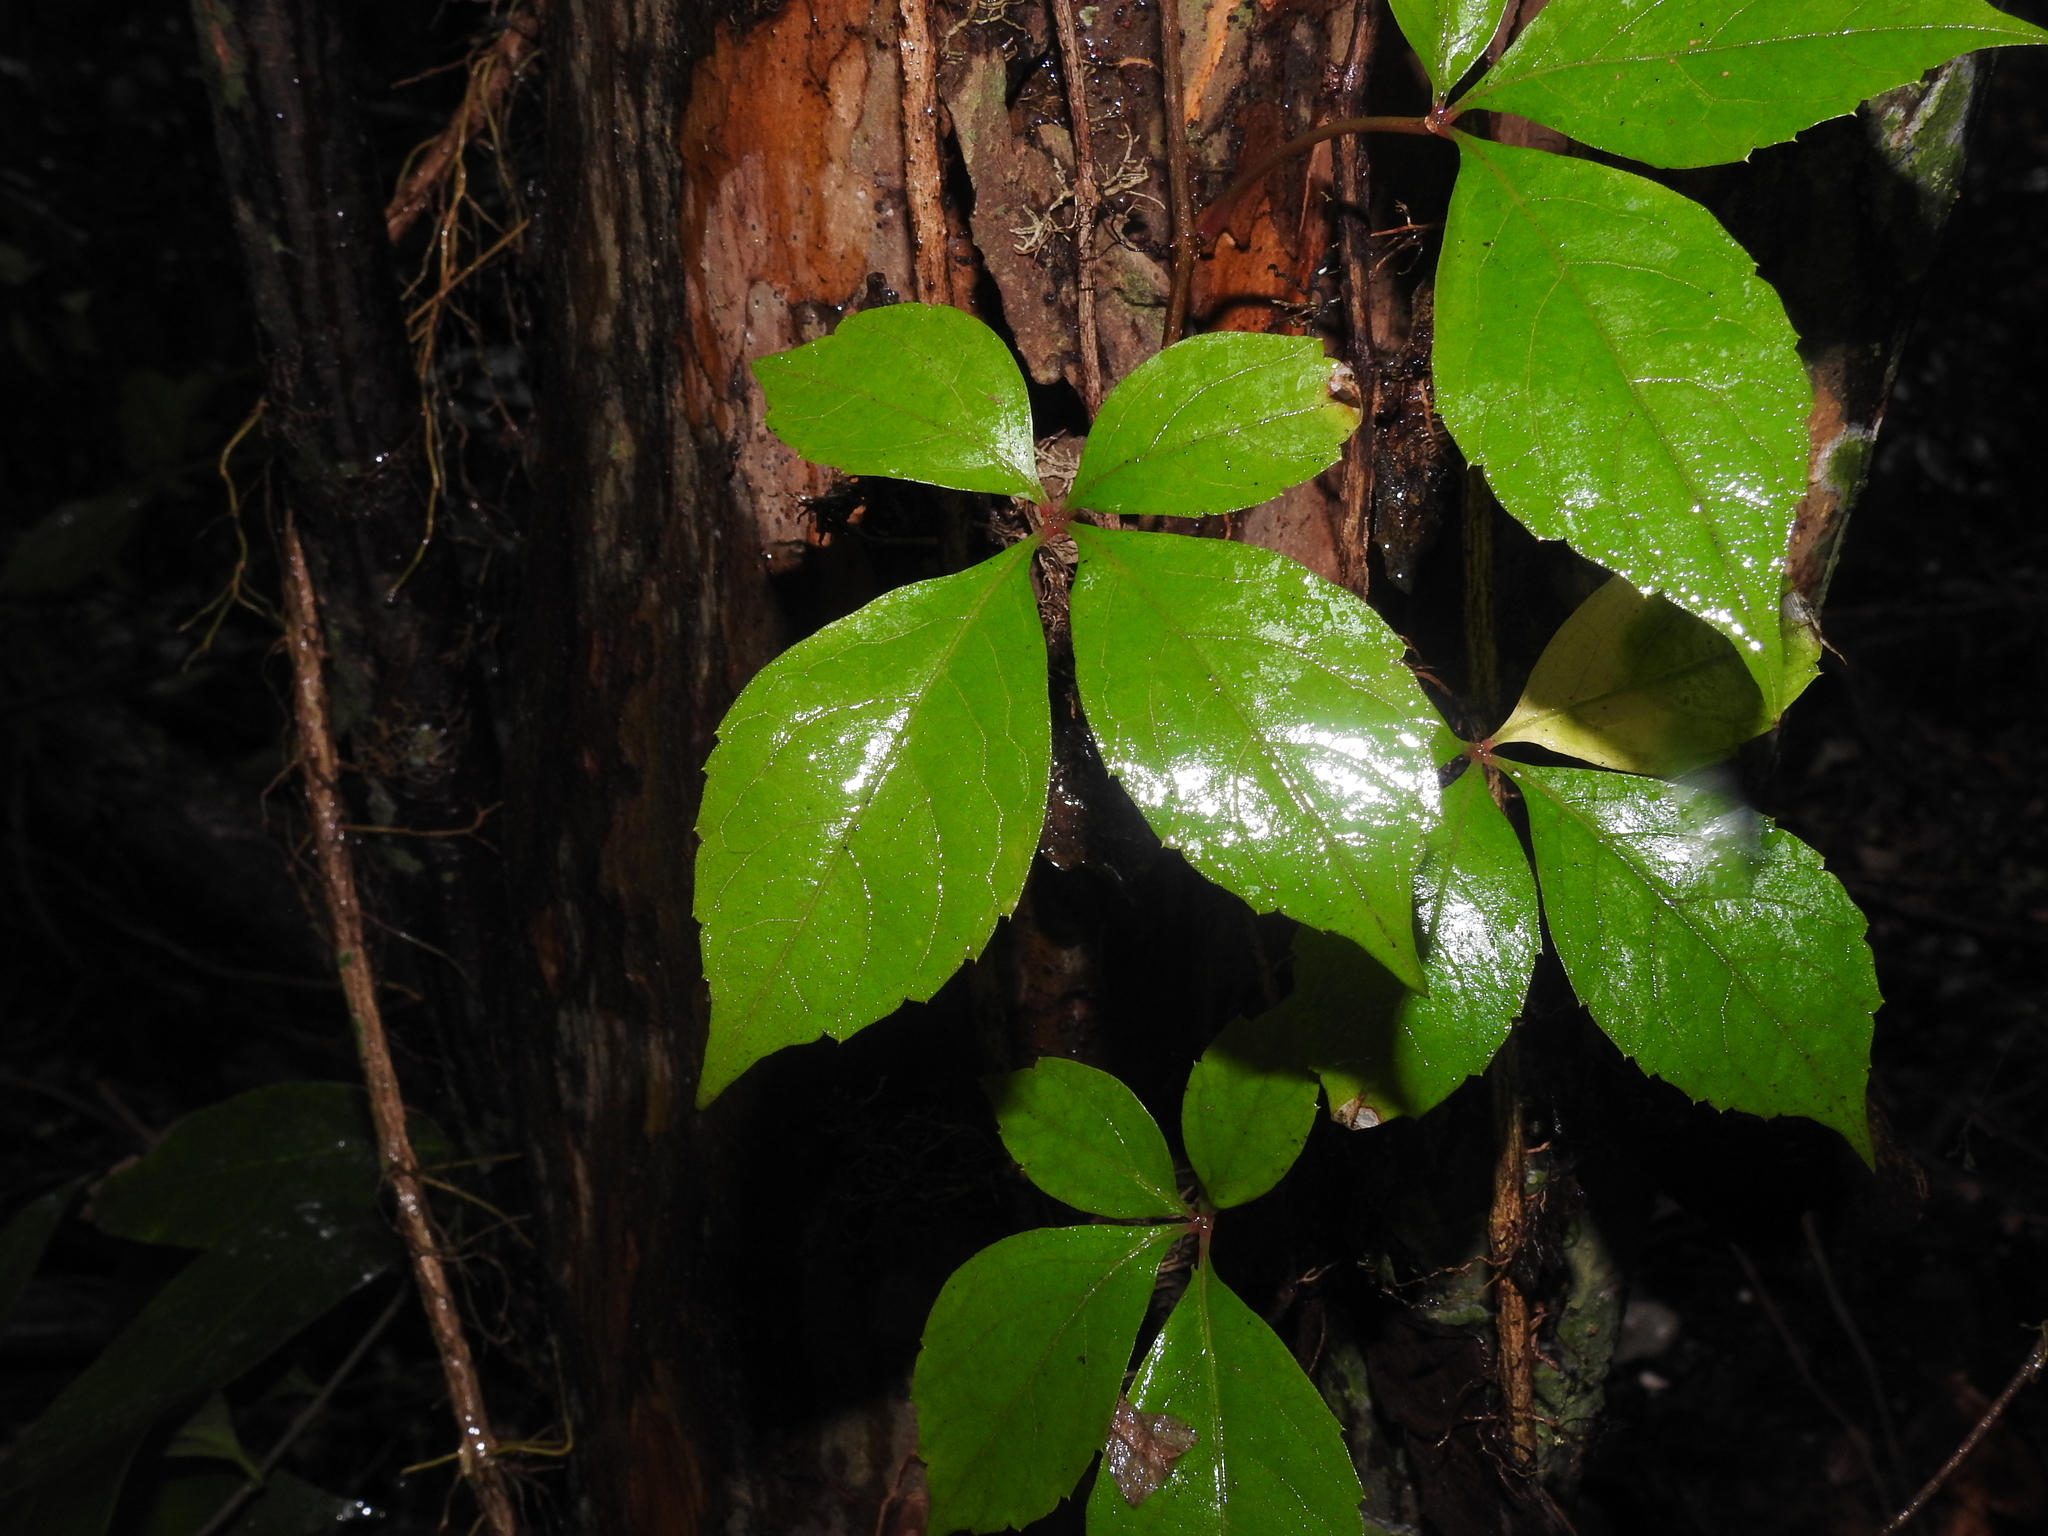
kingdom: Plantae
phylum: Tracheophyta
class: Magnoliopsida
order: Vitales
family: Vitaceae
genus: Parthenocissus
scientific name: Parthenocissus quinquefolia
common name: Virginia-creeper
